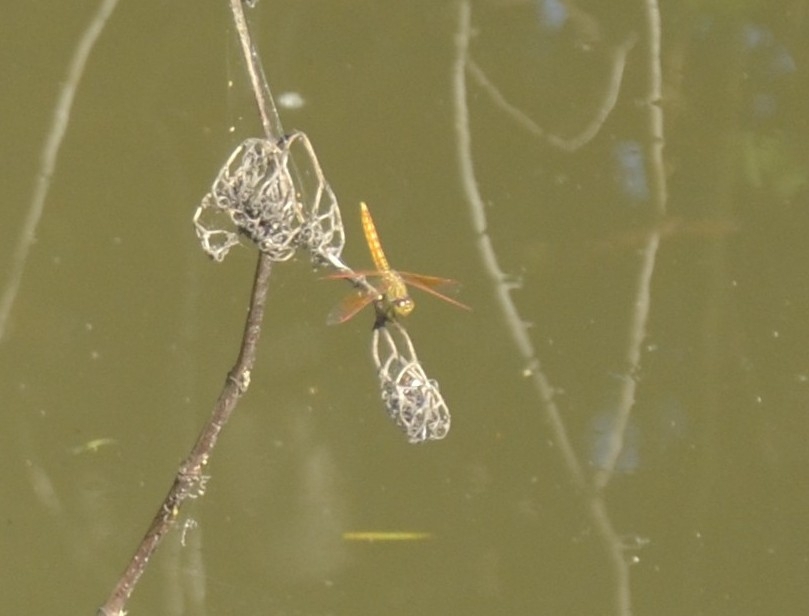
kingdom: Animalia
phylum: Arthropoda
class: Insecta
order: Odonata
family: Libellulidae
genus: Brachythemis
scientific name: Brachythemis contaminata
